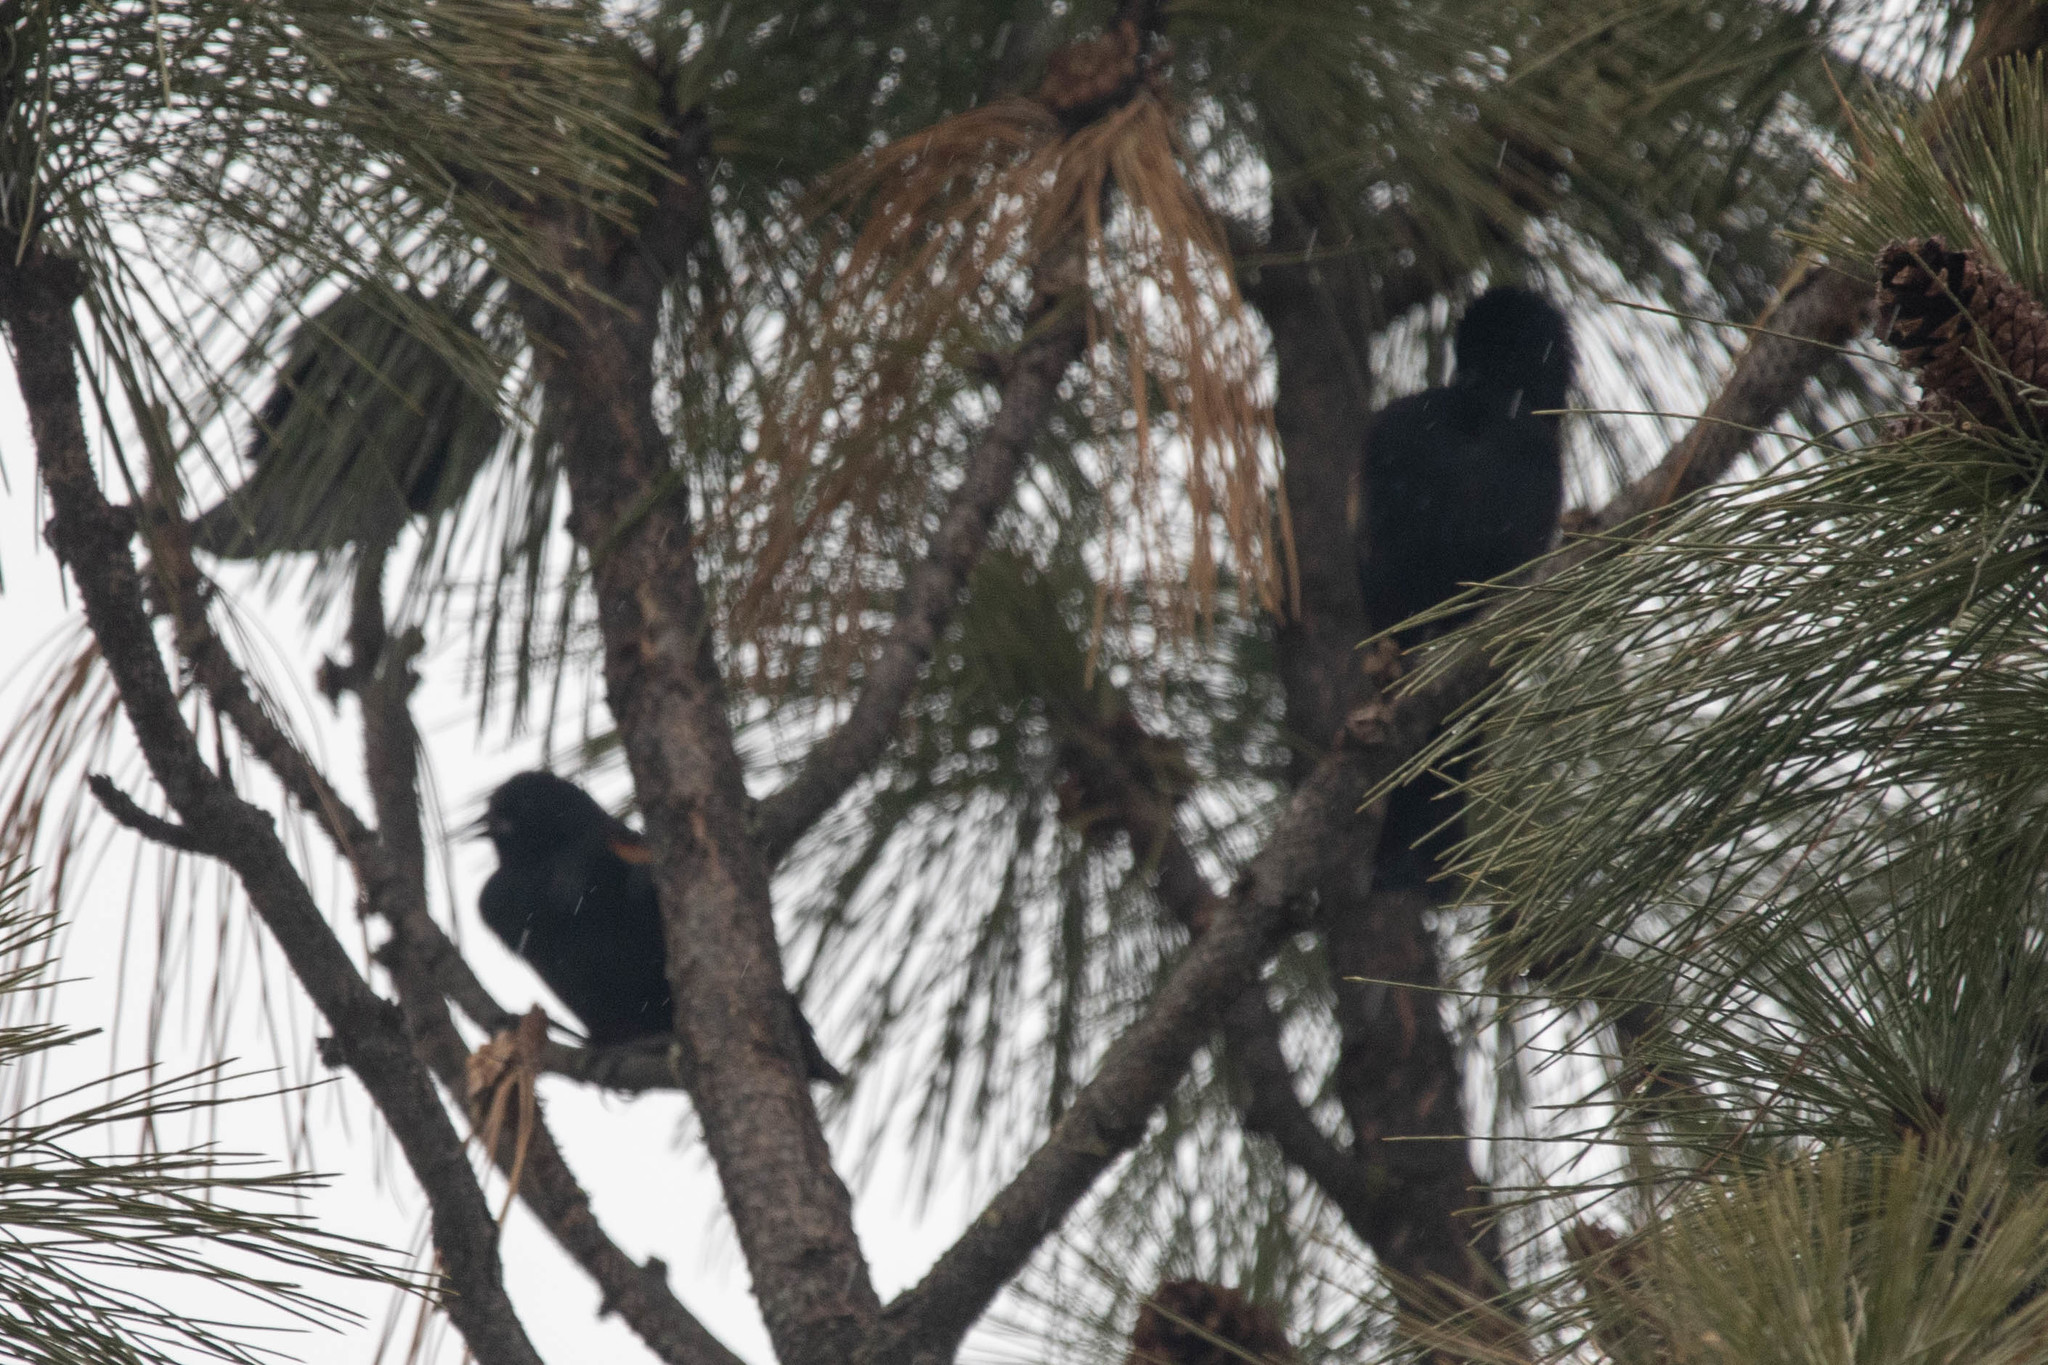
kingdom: Animalia
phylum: Chordata
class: Aves
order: Passeriformes
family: Icteridae
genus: Agelaius
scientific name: Agelaius phoeniceus
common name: Red-winged blackbird
